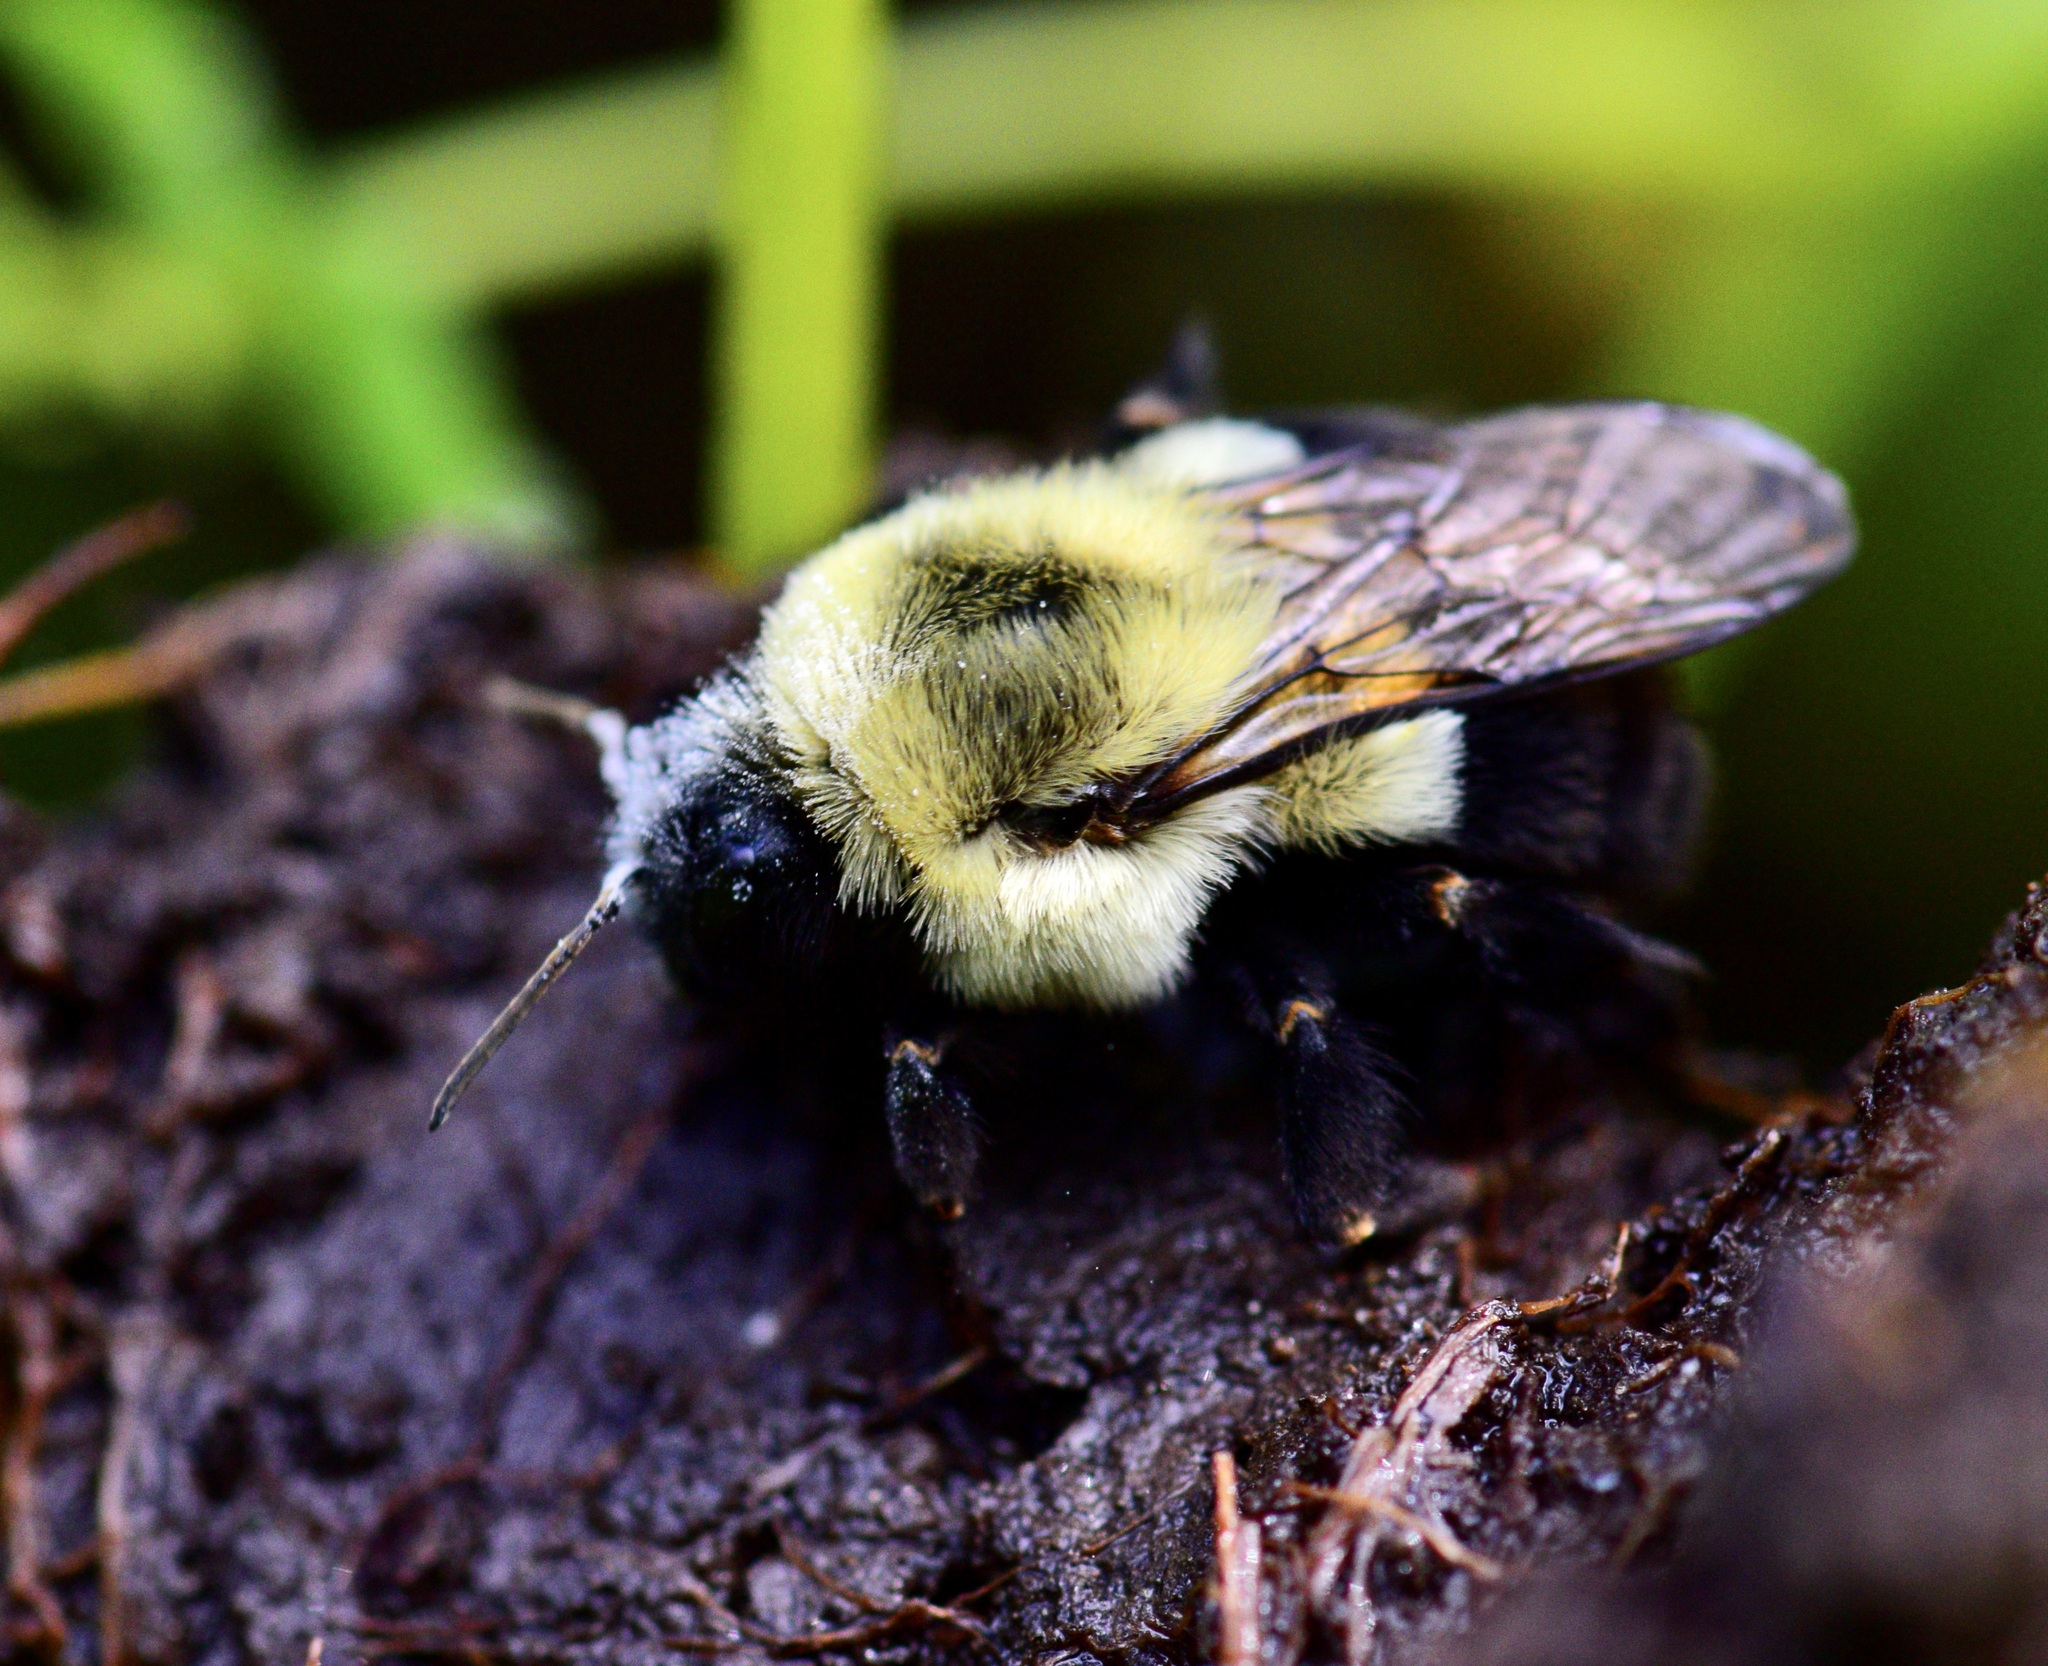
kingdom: Animalia
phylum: Arthropoda
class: Insecta
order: Hymenoptera
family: Apidae
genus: Bombus
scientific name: Bombus impatiens
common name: Common eastern bumble bee
